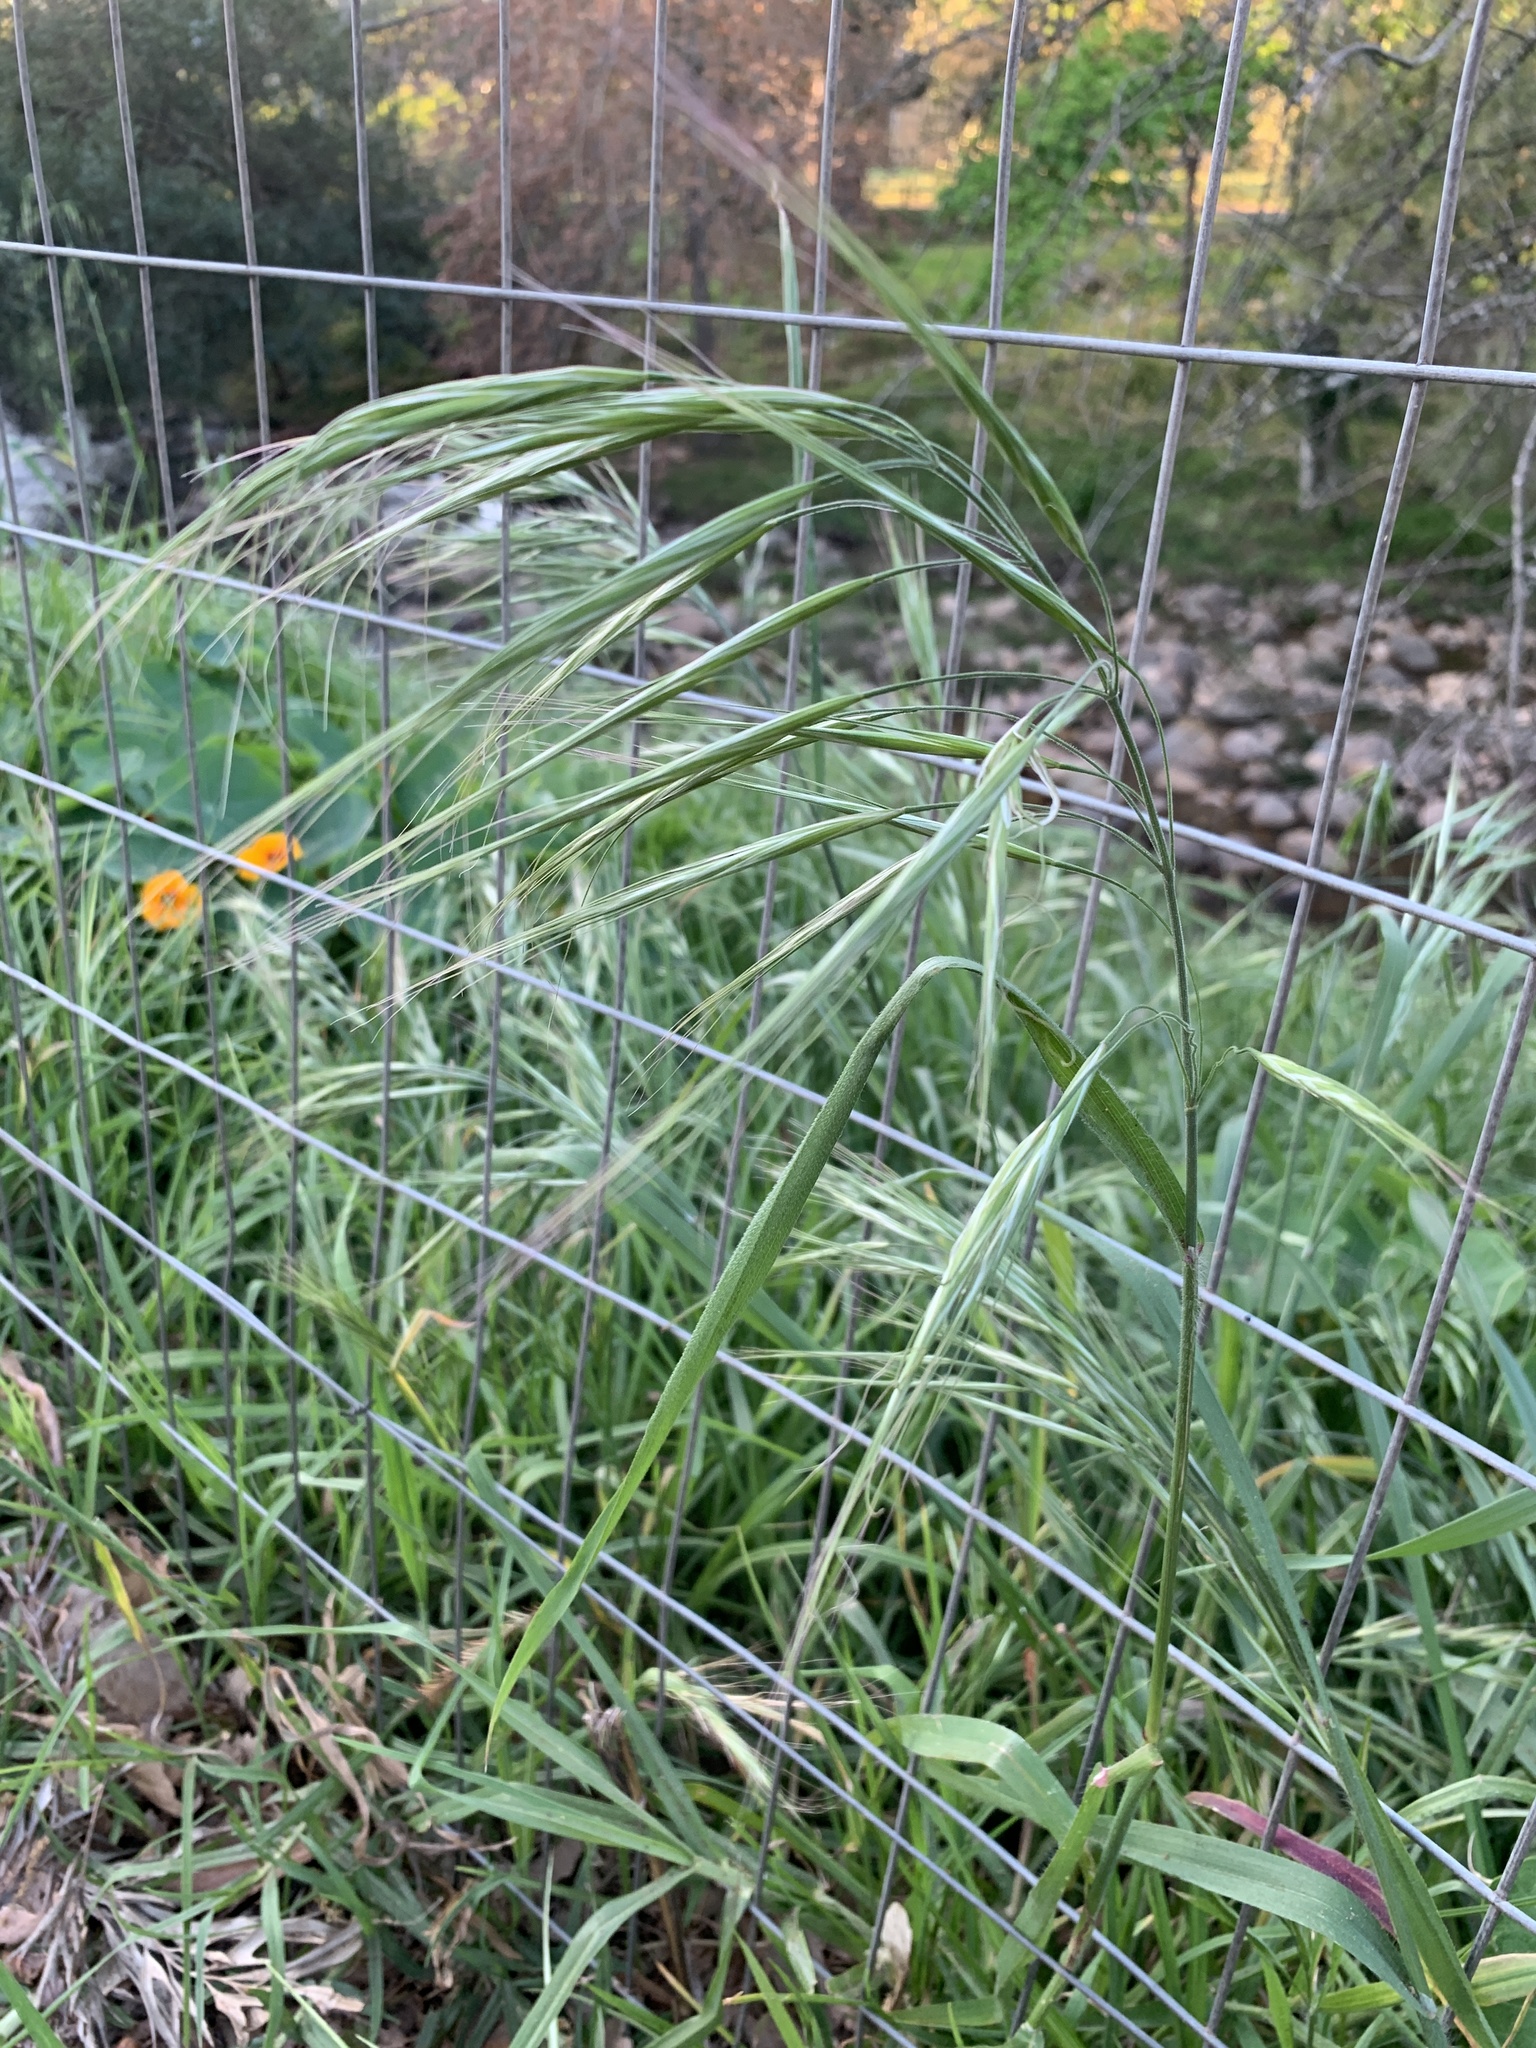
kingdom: Plantae
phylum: Tracheophyta
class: Liliopsida
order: Poales
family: Poaceae
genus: Bromus
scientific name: Bromus diandrus
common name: Ripgut brome
